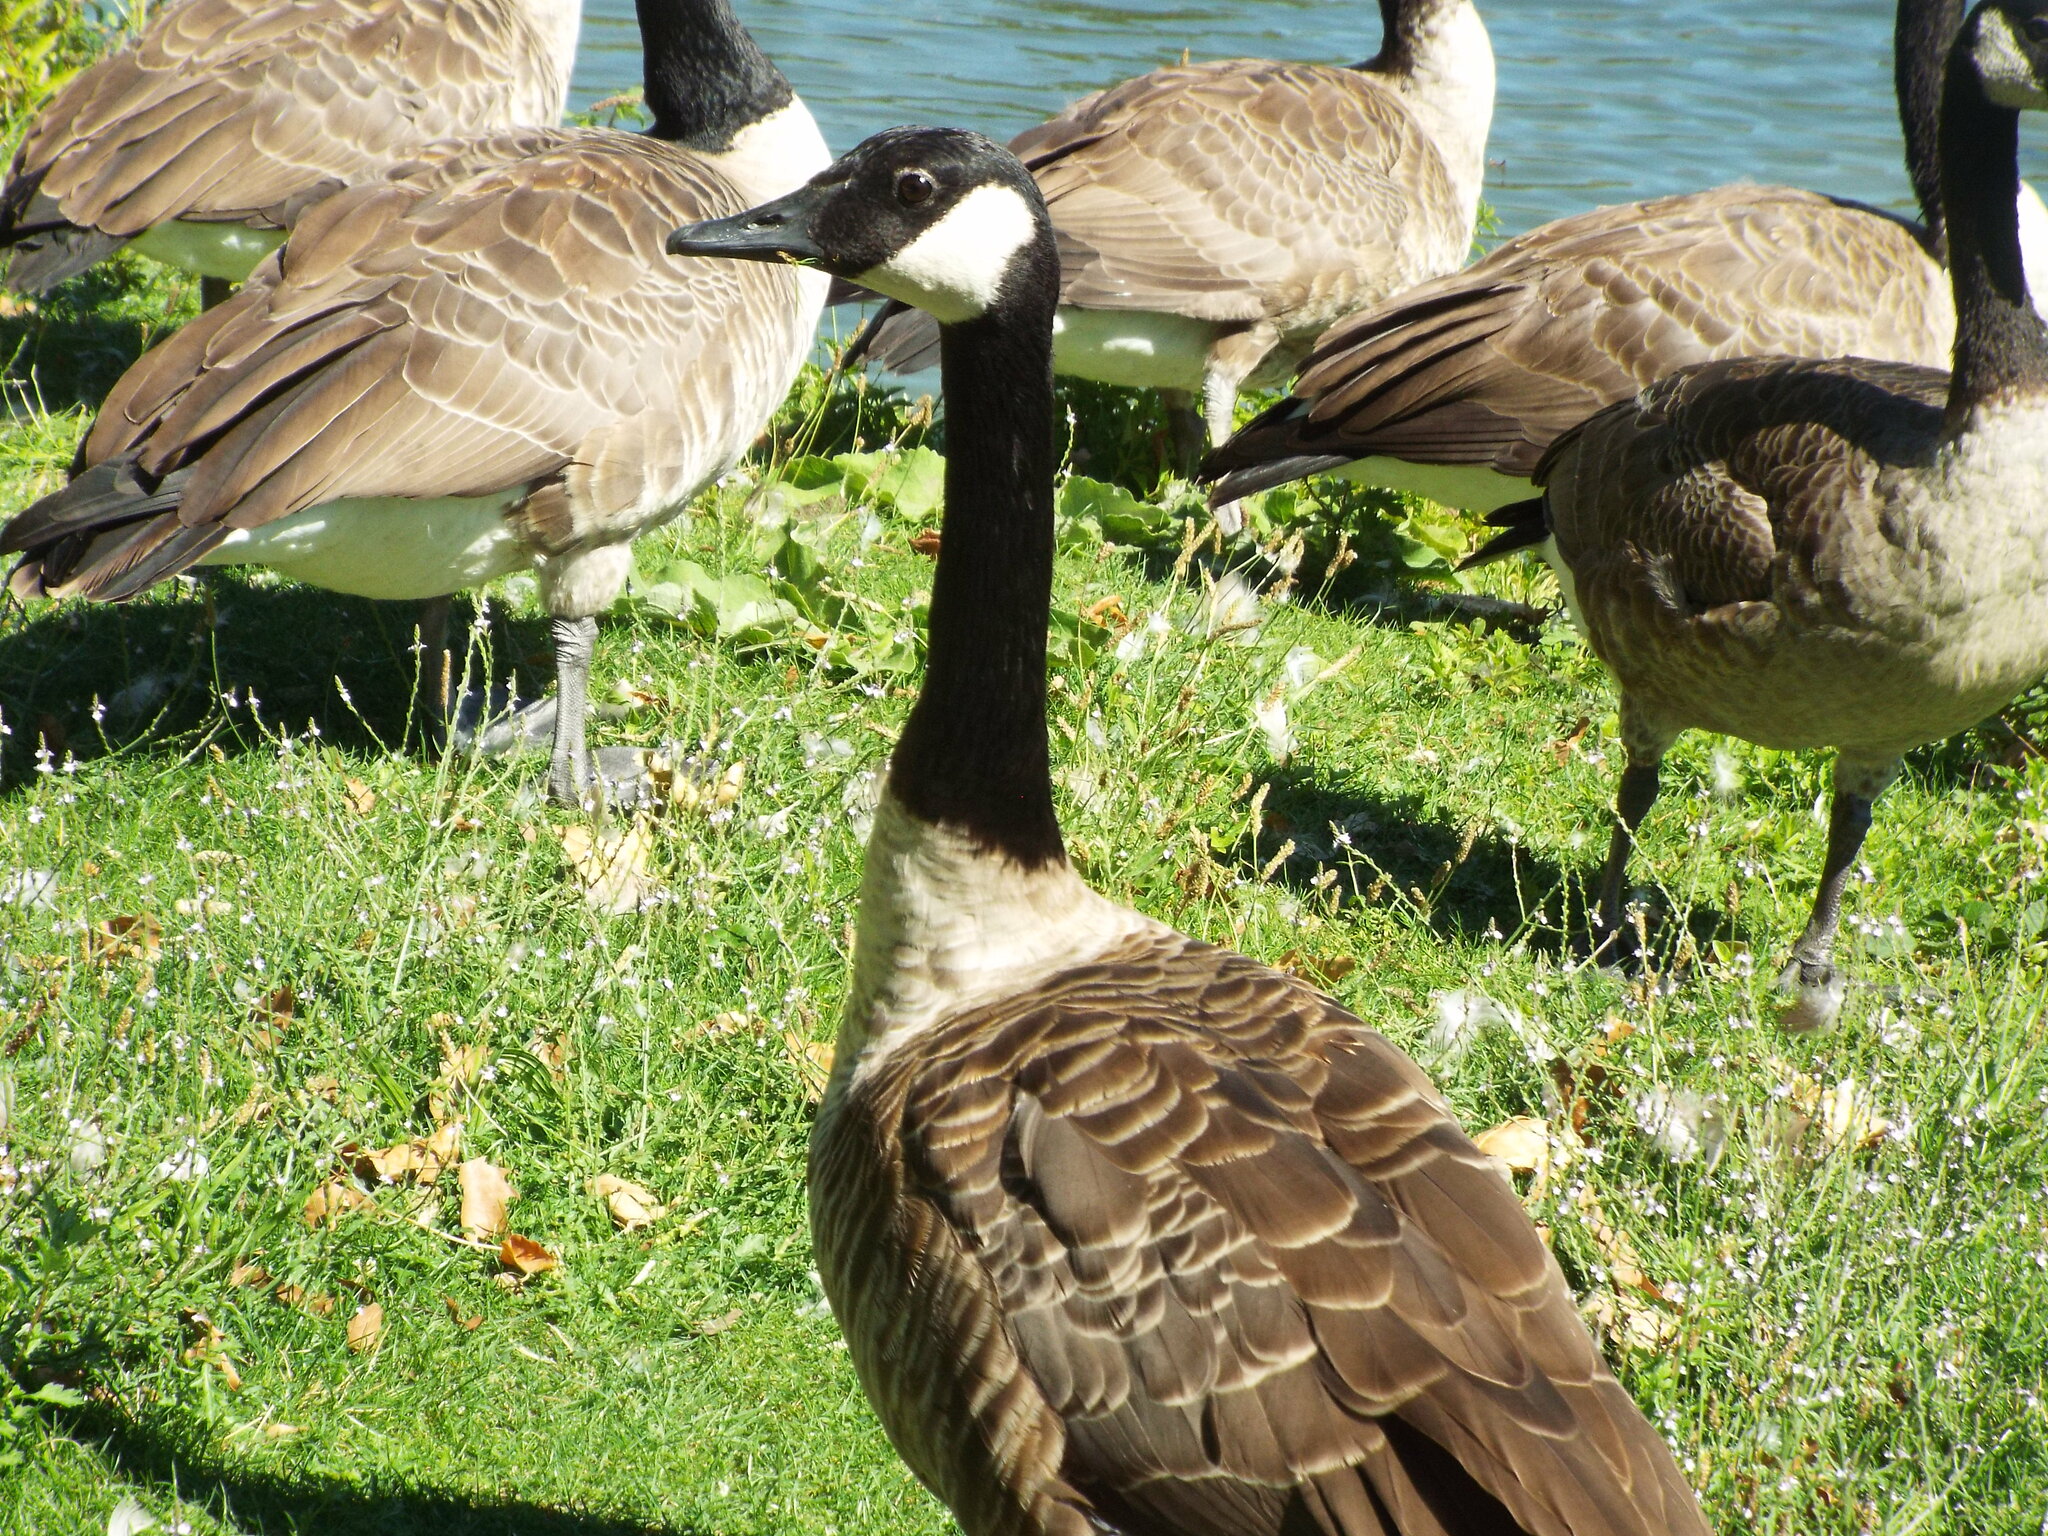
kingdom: Animalia
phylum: Chordata
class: Aves
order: Anseriformes
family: Anatidae
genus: Branta
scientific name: Branta canadensis
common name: Canada goose
